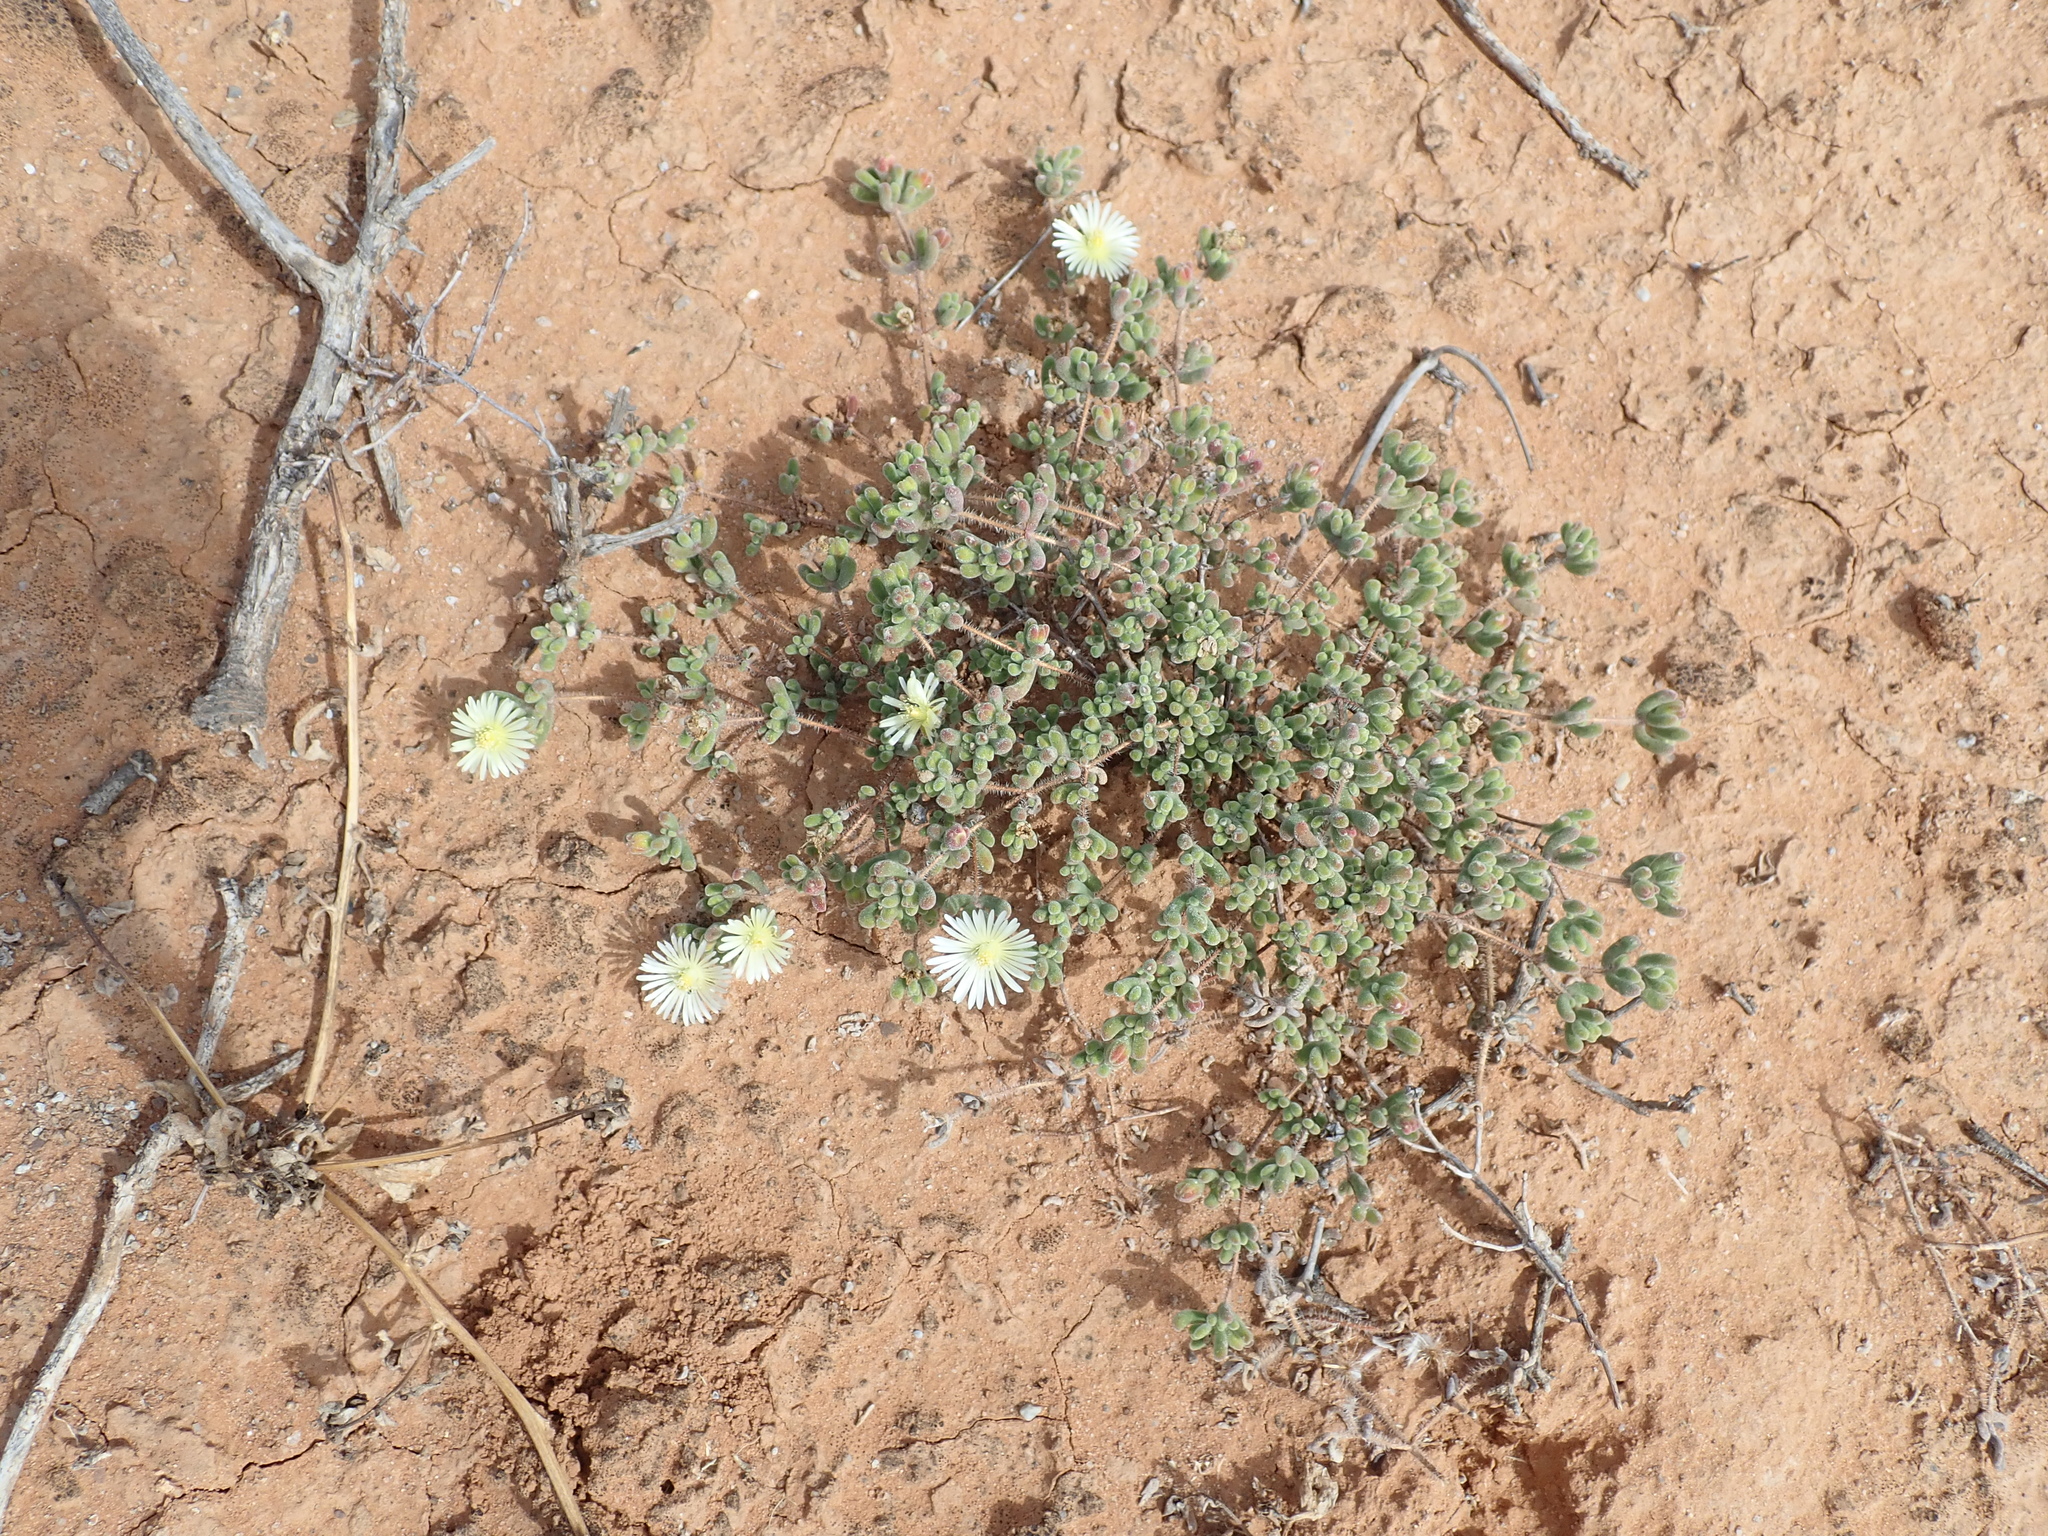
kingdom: Plantae
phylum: Tracheophyta
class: Magnoliopsida
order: Caryophyllales
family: Aizoaceae
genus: Drosanthemum
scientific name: Drosanthemum schoenlandianum
